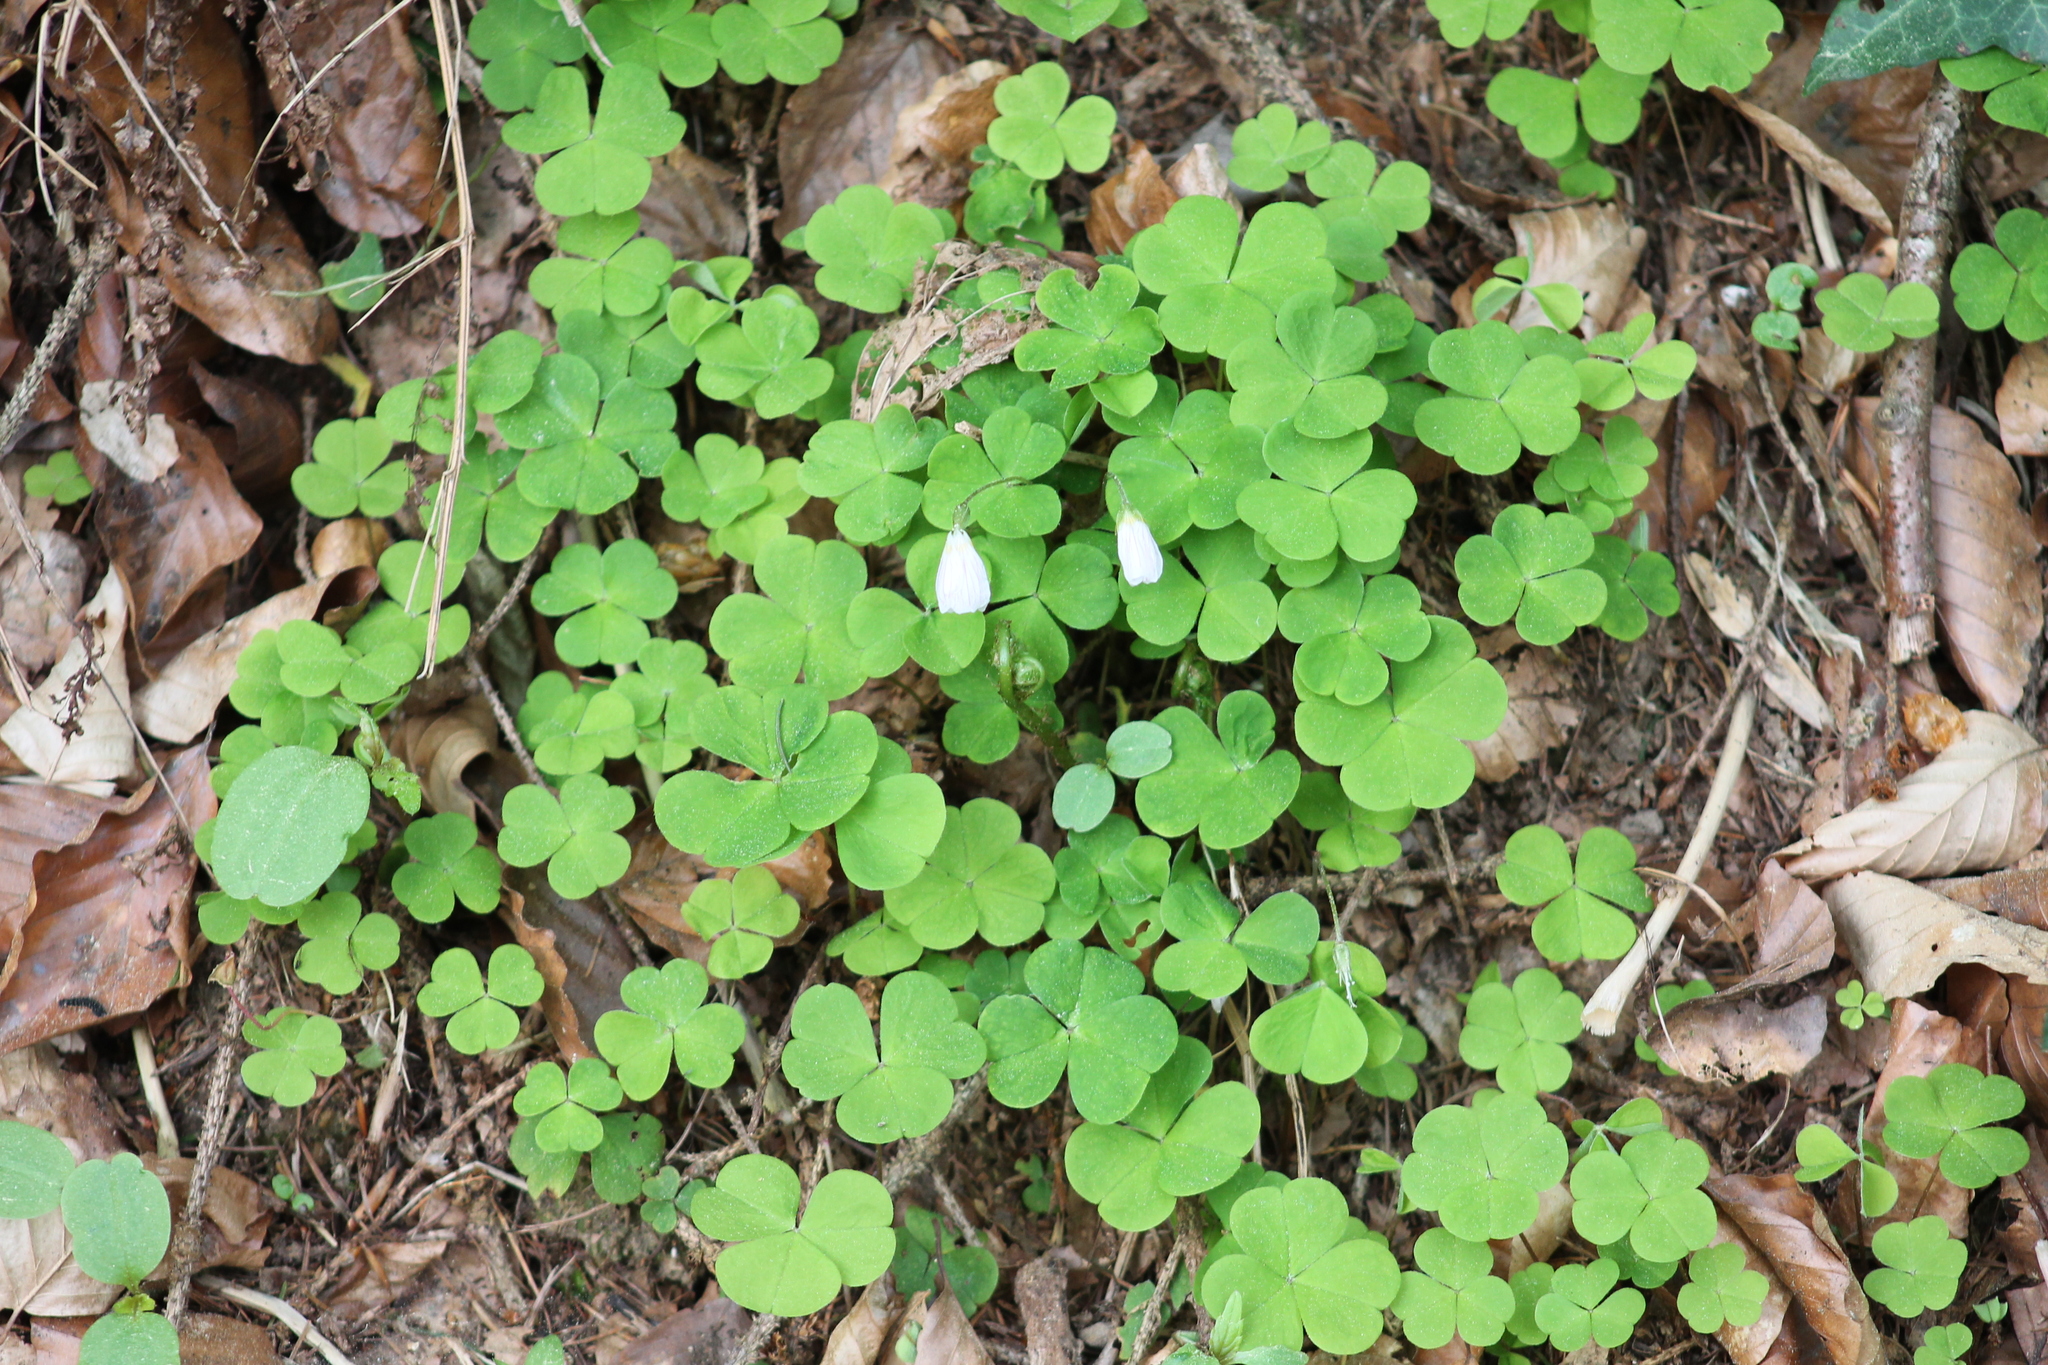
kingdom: Plantae
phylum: Tracheophyta
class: Magnoliopsida
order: Oxalidales
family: Oxalidaceae
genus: Oxalis
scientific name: Oxalis acetosella
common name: Wood-sorrel
